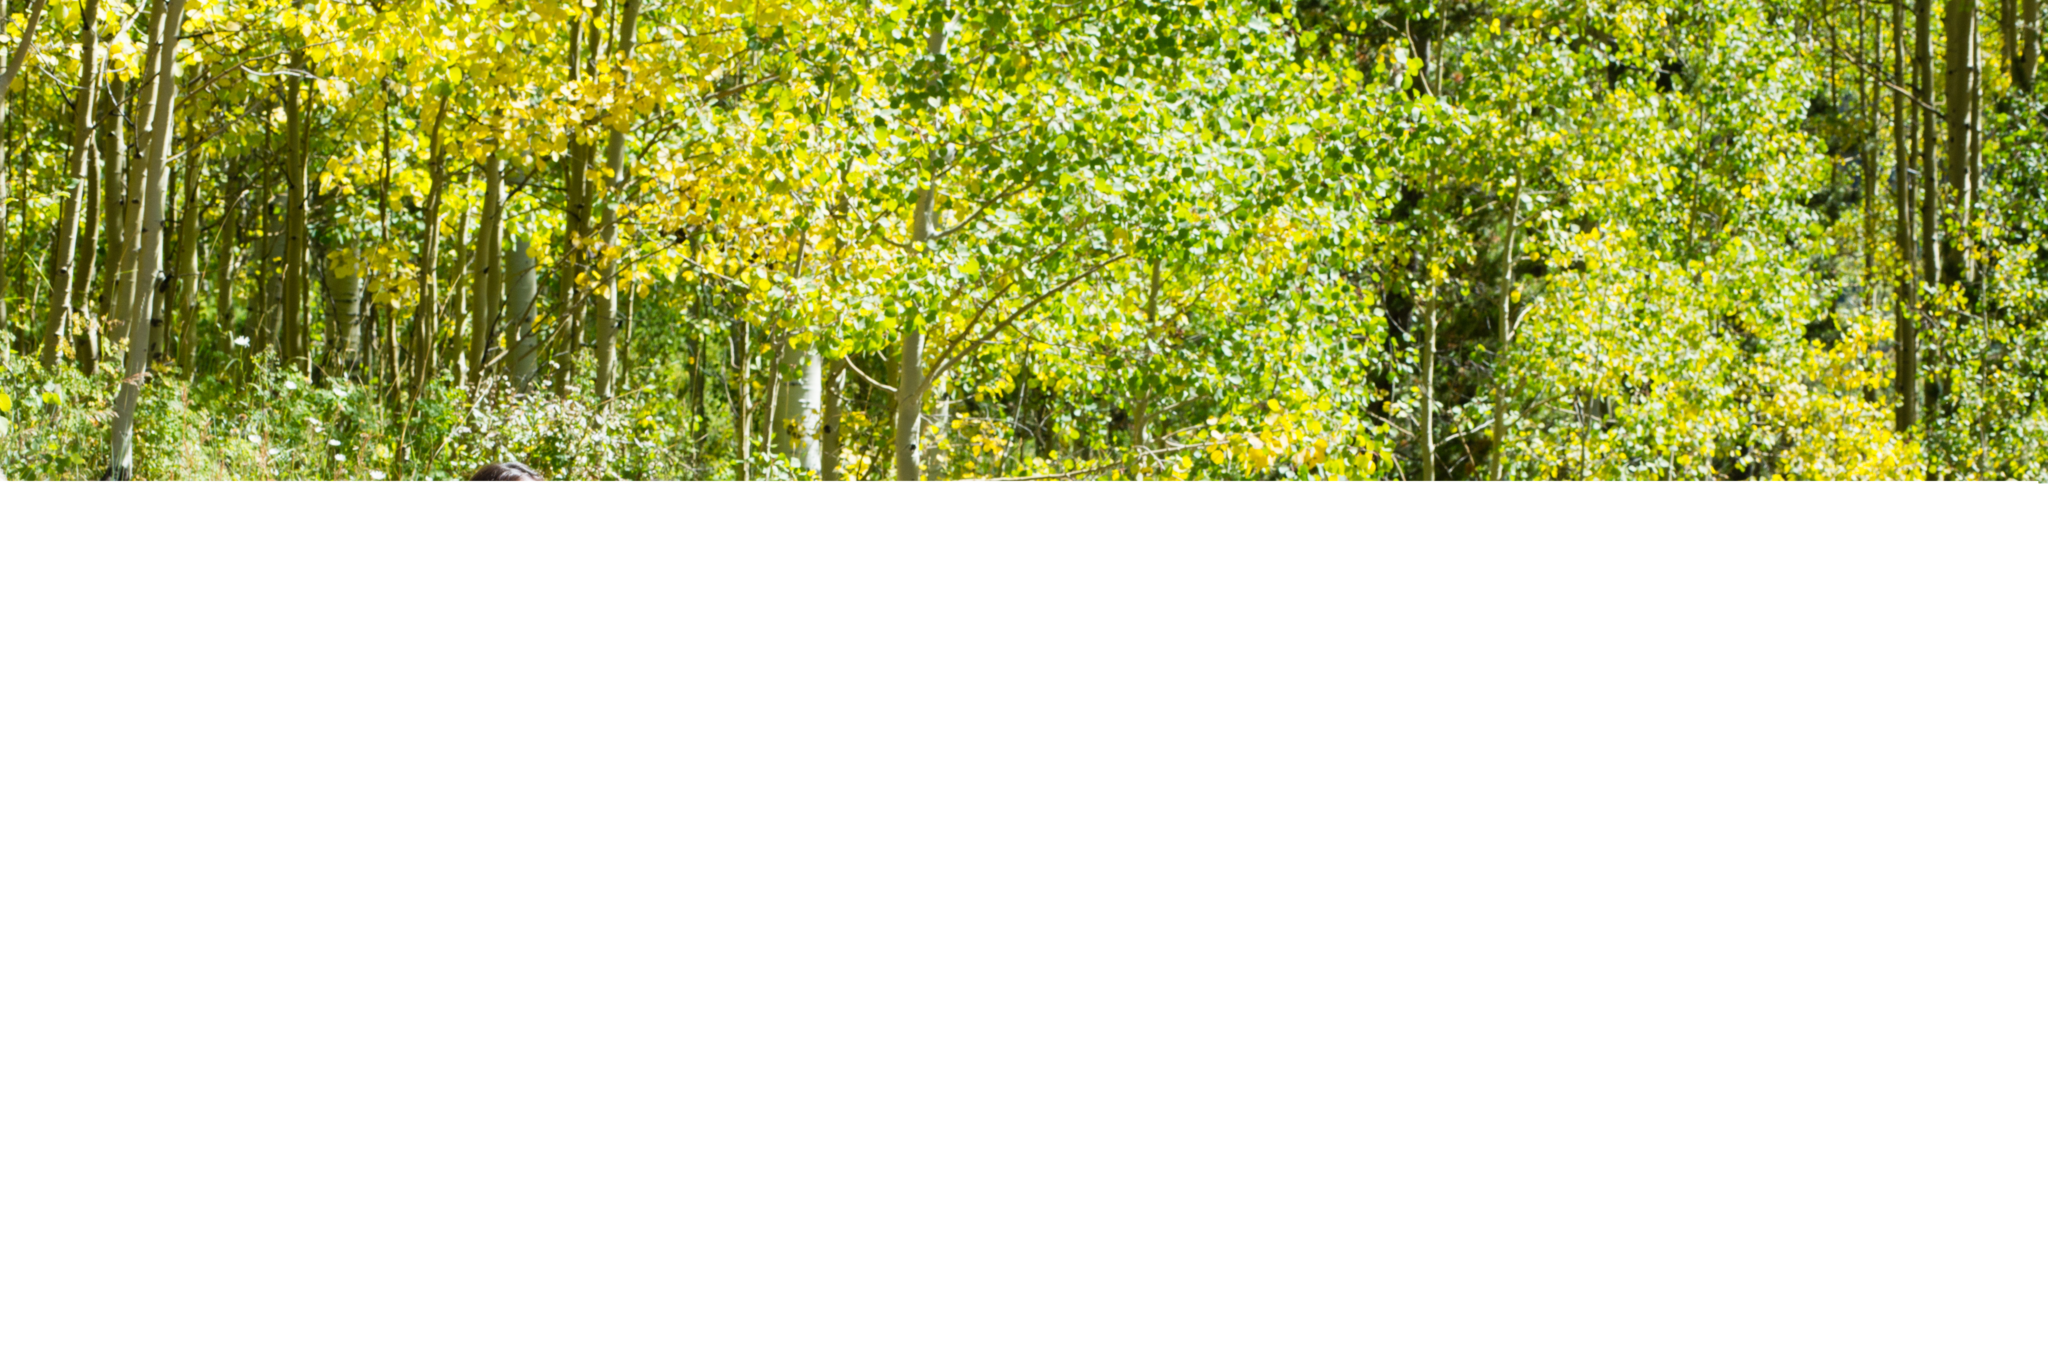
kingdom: Plantae
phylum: Tracheophyta
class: Magnoliopsida
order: Malpighiales
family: Salicaceae
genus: Populus
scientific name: Populus tremuloides
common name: Quaking aspen
